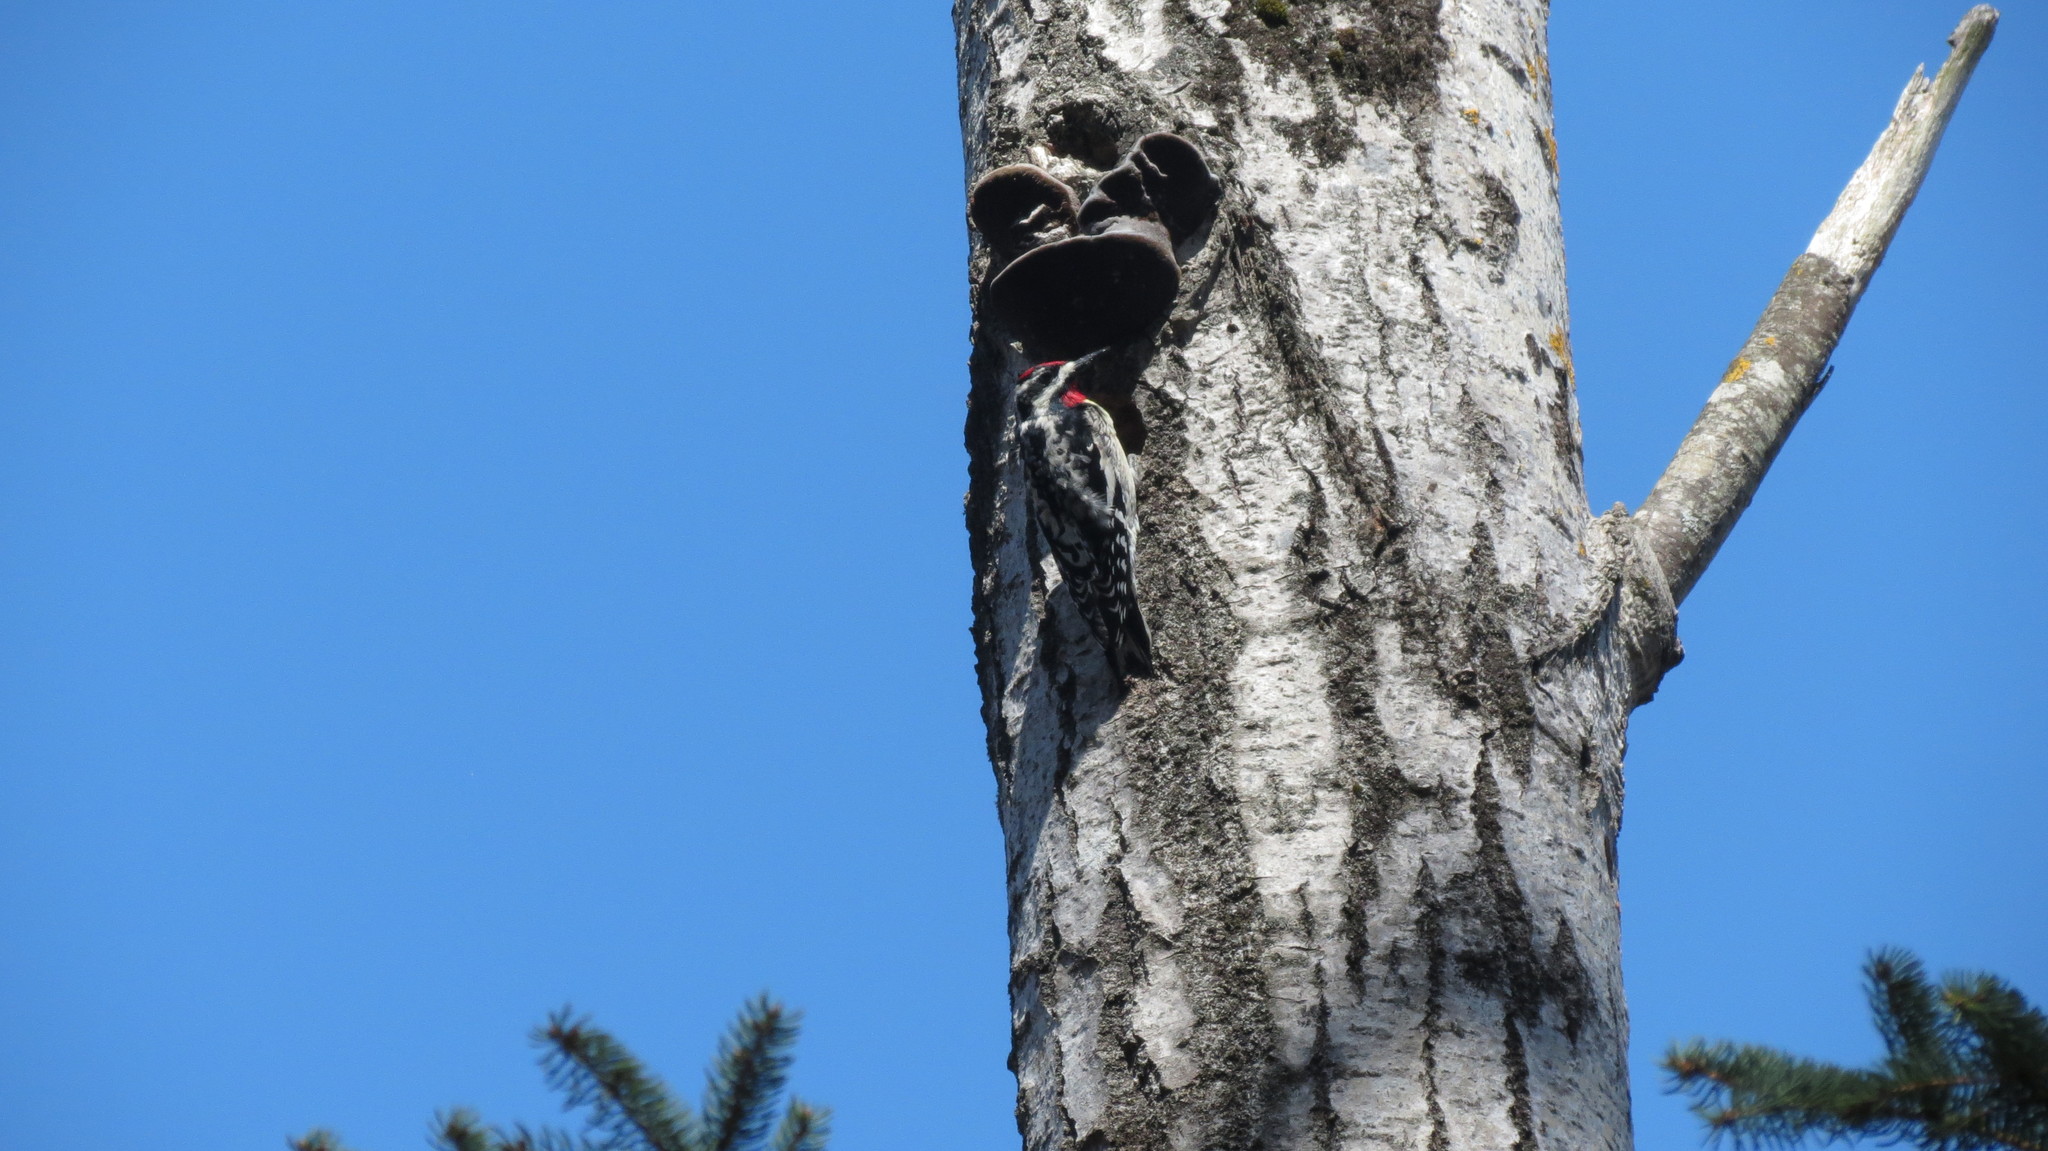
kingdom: Animalia
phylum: Chordata
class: Aves
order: Piciformes
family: Picidae
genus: Sphyrapicus
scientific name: Sphyrapicus varius
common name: Yellow-bellied sapsucker
